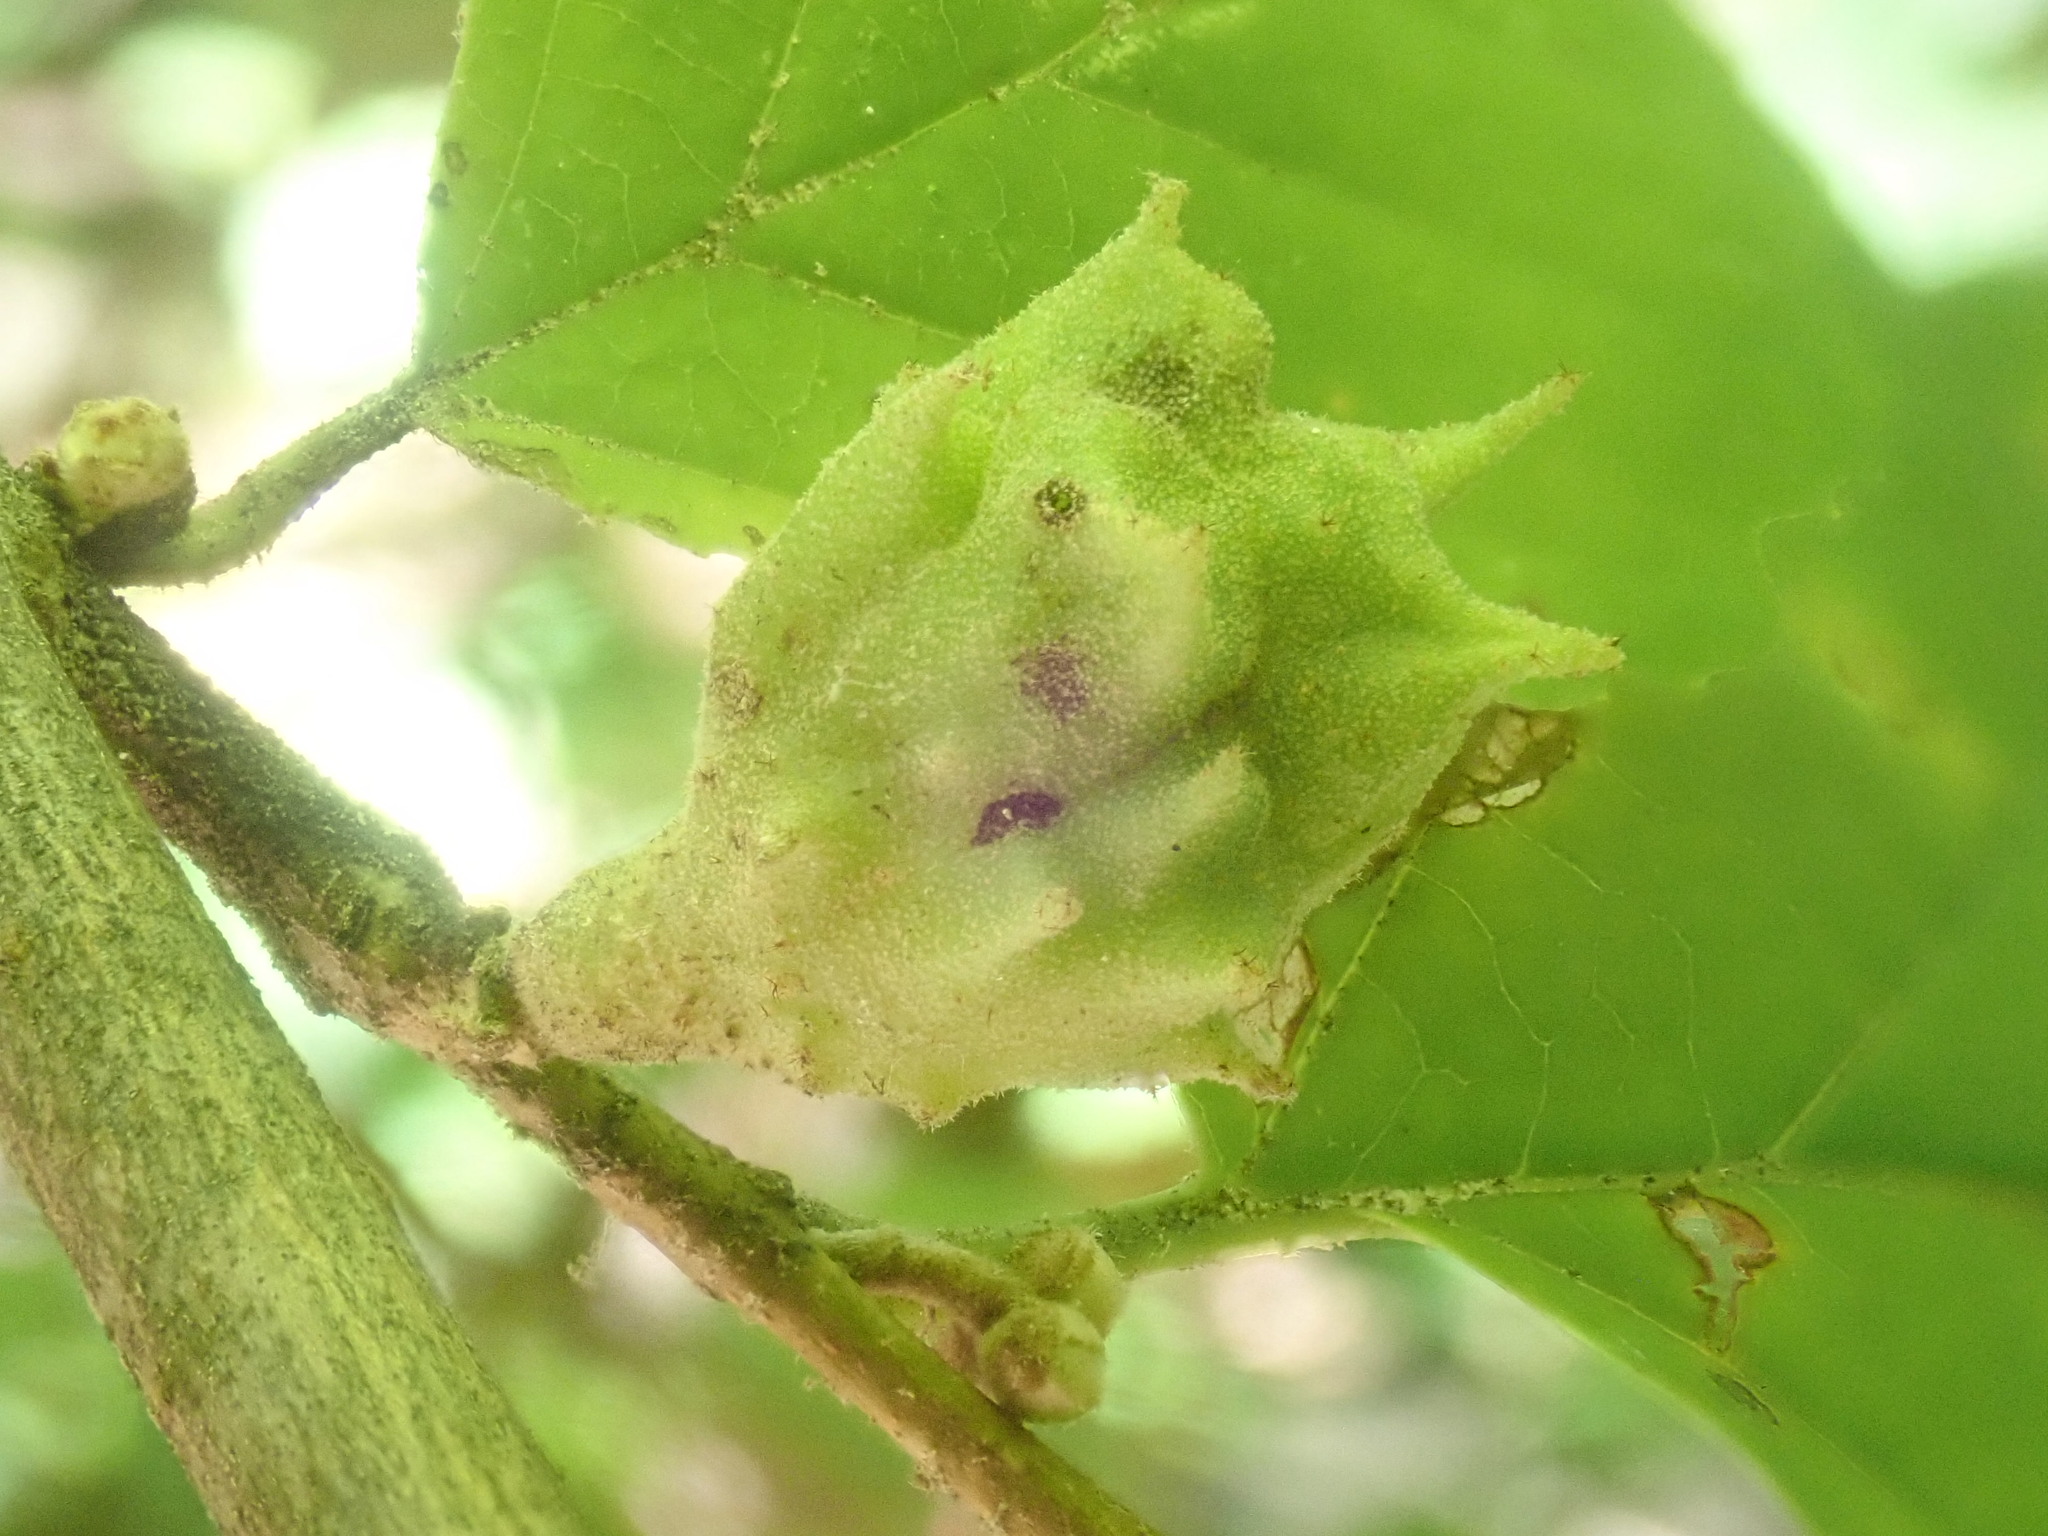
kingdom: Animalia
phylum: Arthropoda
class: Insecta
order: Hemiptera
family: Aphididae
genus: Hamamelistes
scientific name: Hamamelistes spinosus
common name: Witch hazel gall aphid
